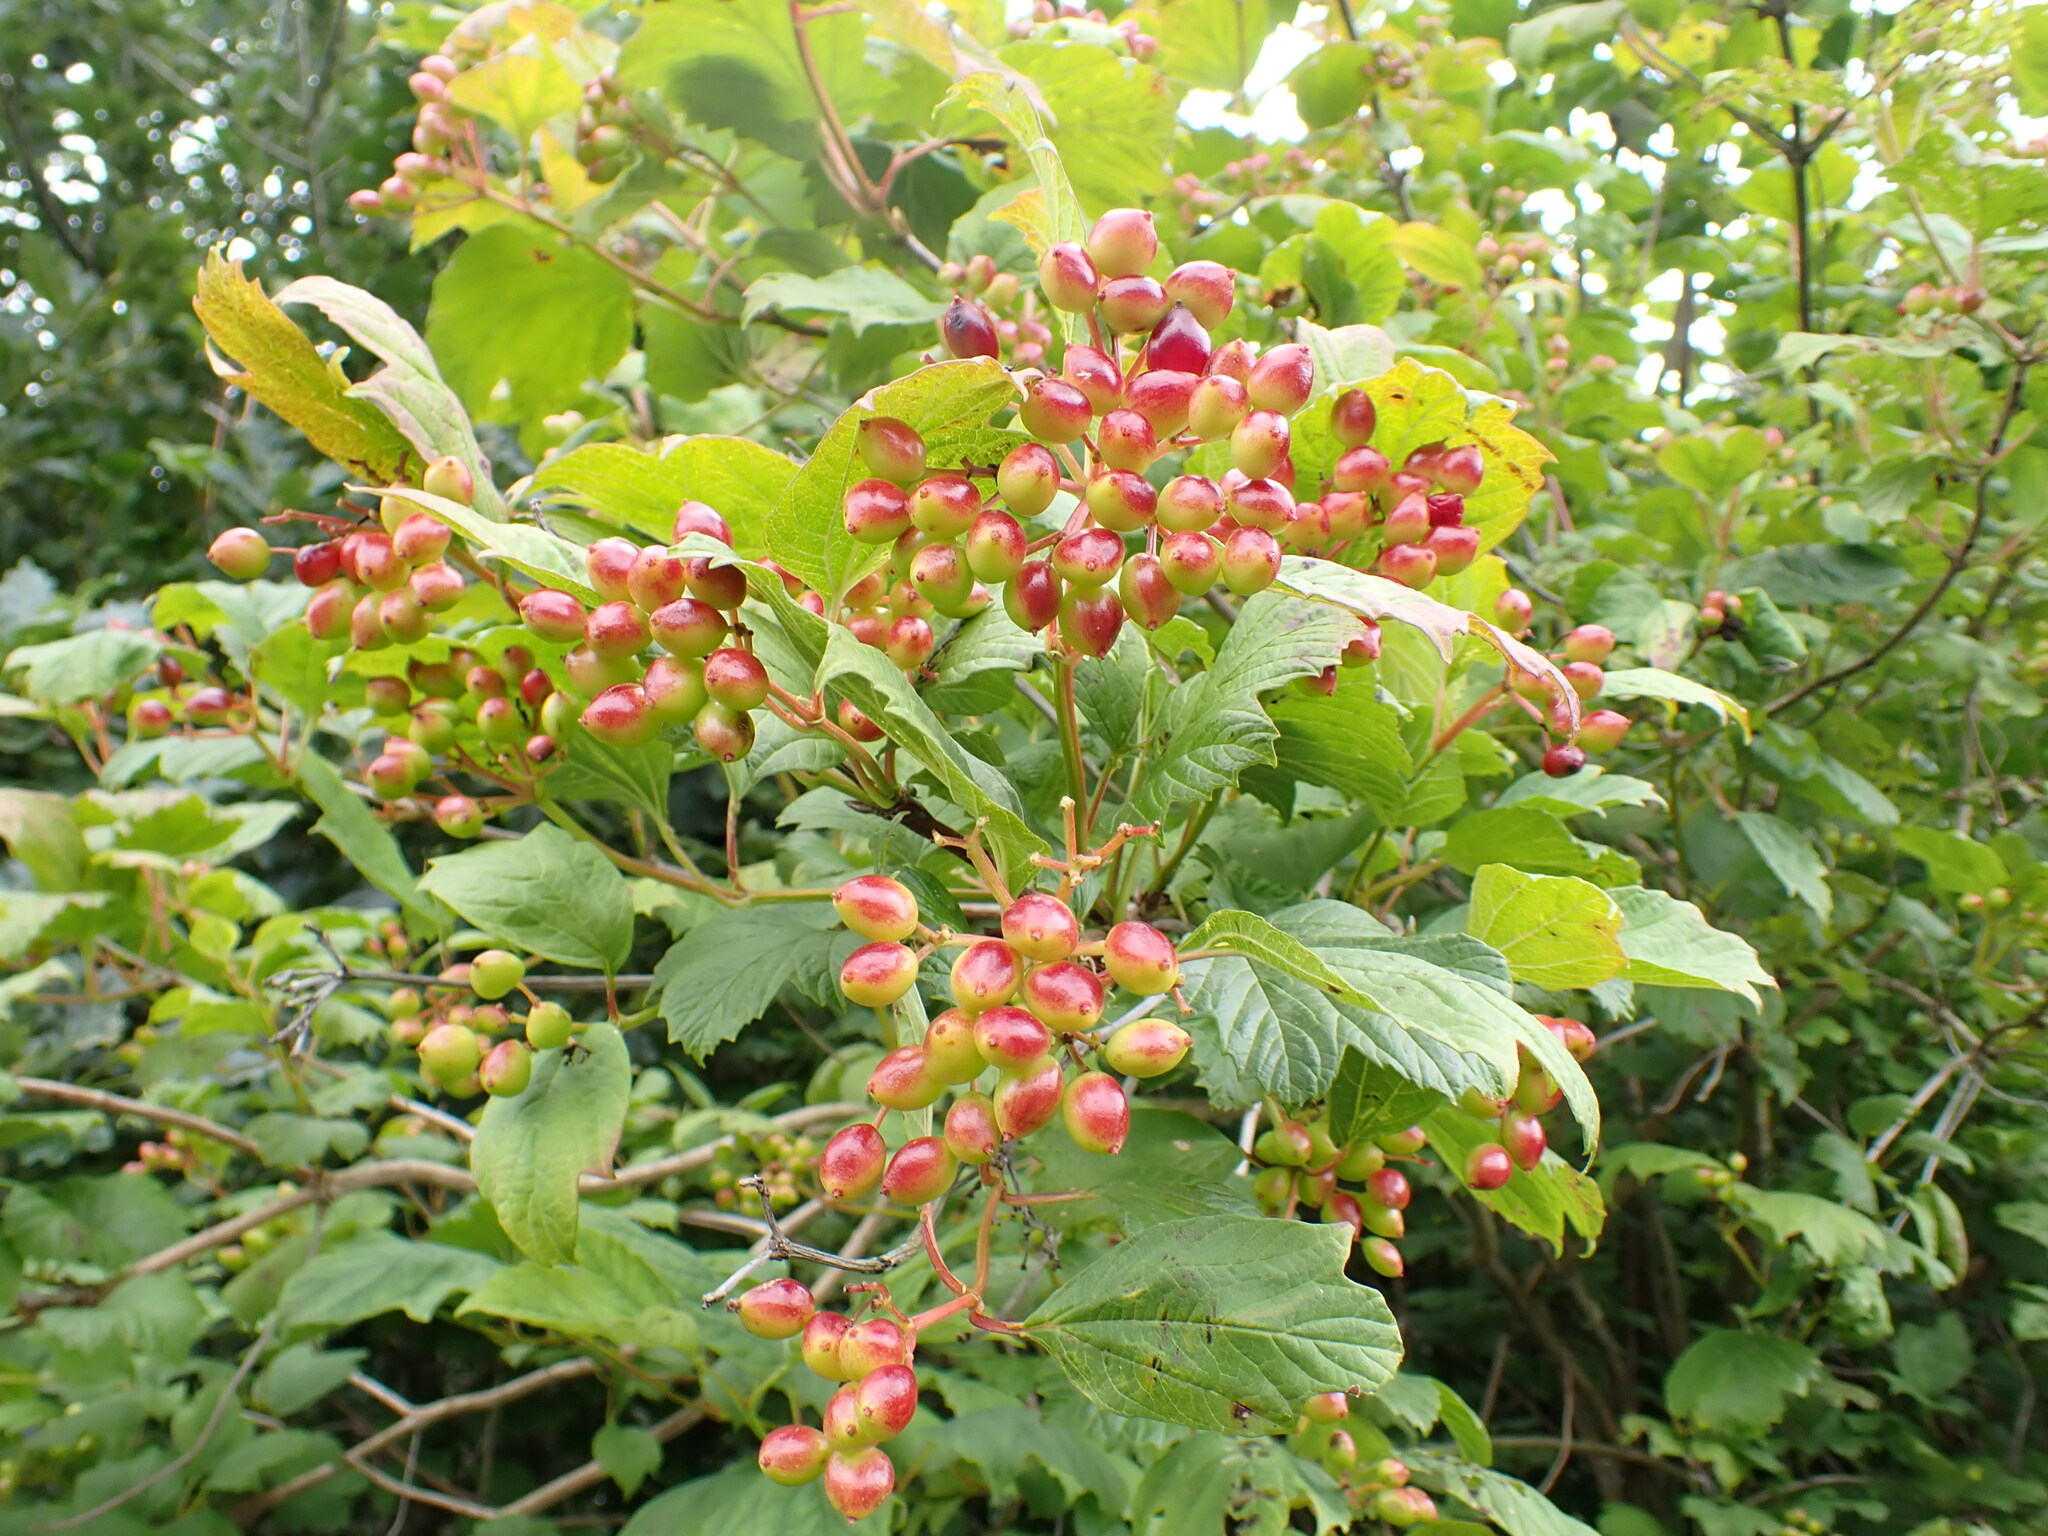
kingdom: Plantae
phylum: Tracheophyta
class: Magnoliopsida
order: Dipsacales
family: Viburnaceae
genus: Viburnum
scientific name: Viburnum opulus
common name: Guelder-rose
